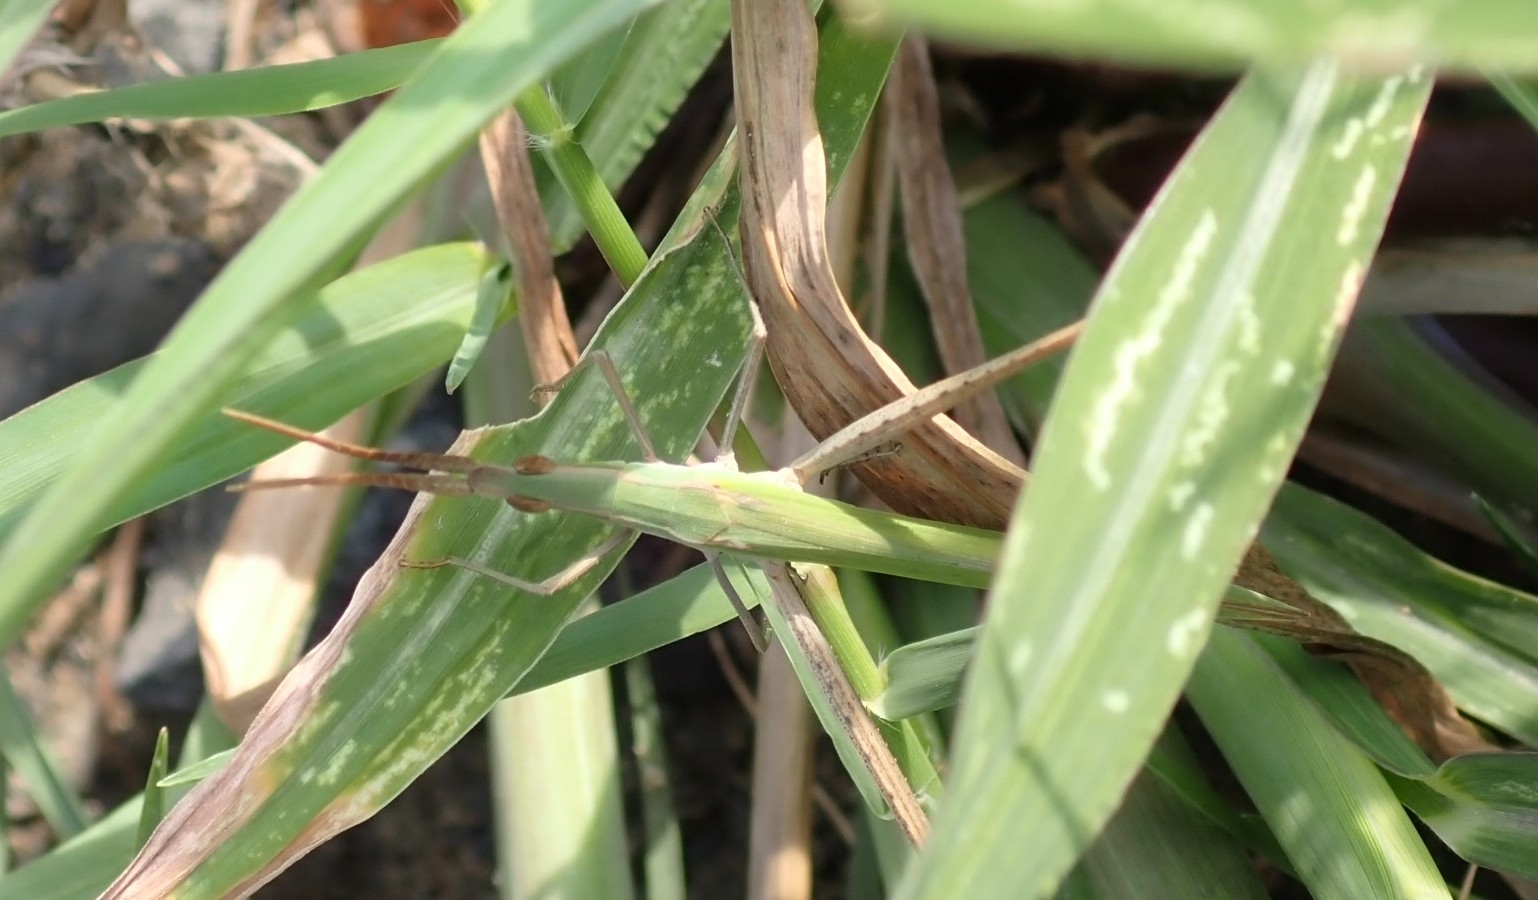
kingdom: Animalia
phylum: Arthropoda
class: Insecta
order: Orthoptera
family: Acrididae
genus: Acrida
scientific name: Acrida ungarica
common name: Common cone-headed grasshopper
